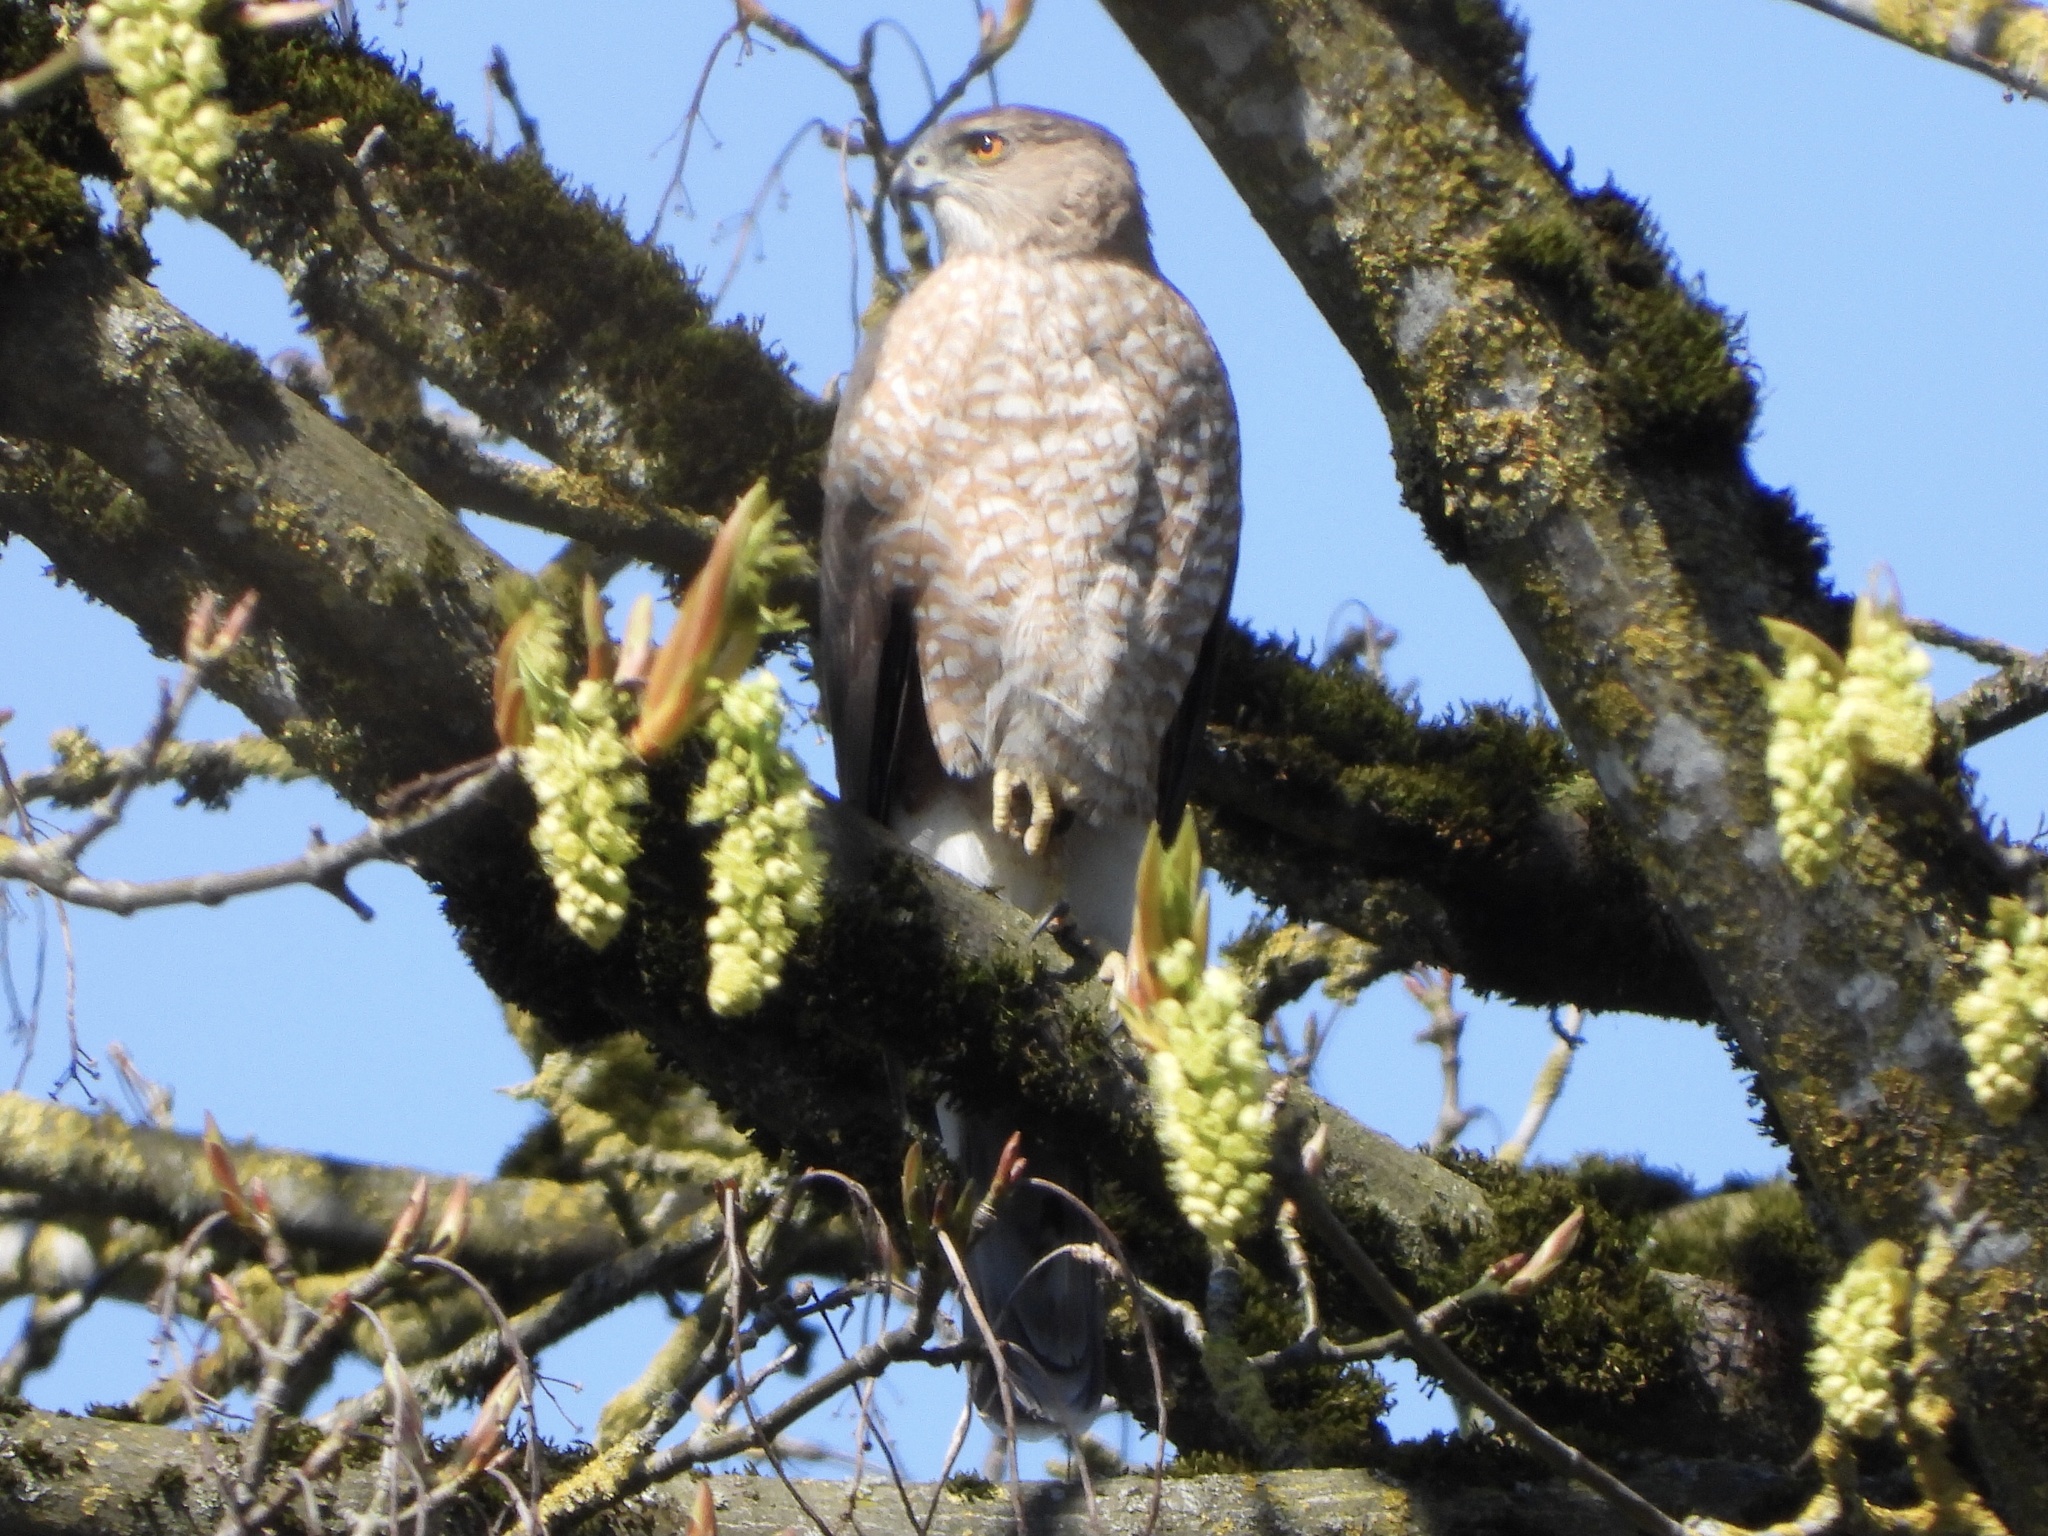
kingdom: Animalia
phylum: Chordata
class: Aves
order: Accipitriformes
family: Accipitridae
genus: Accipiter
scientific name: Accipiter cooperii
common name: Cooper's hawk
